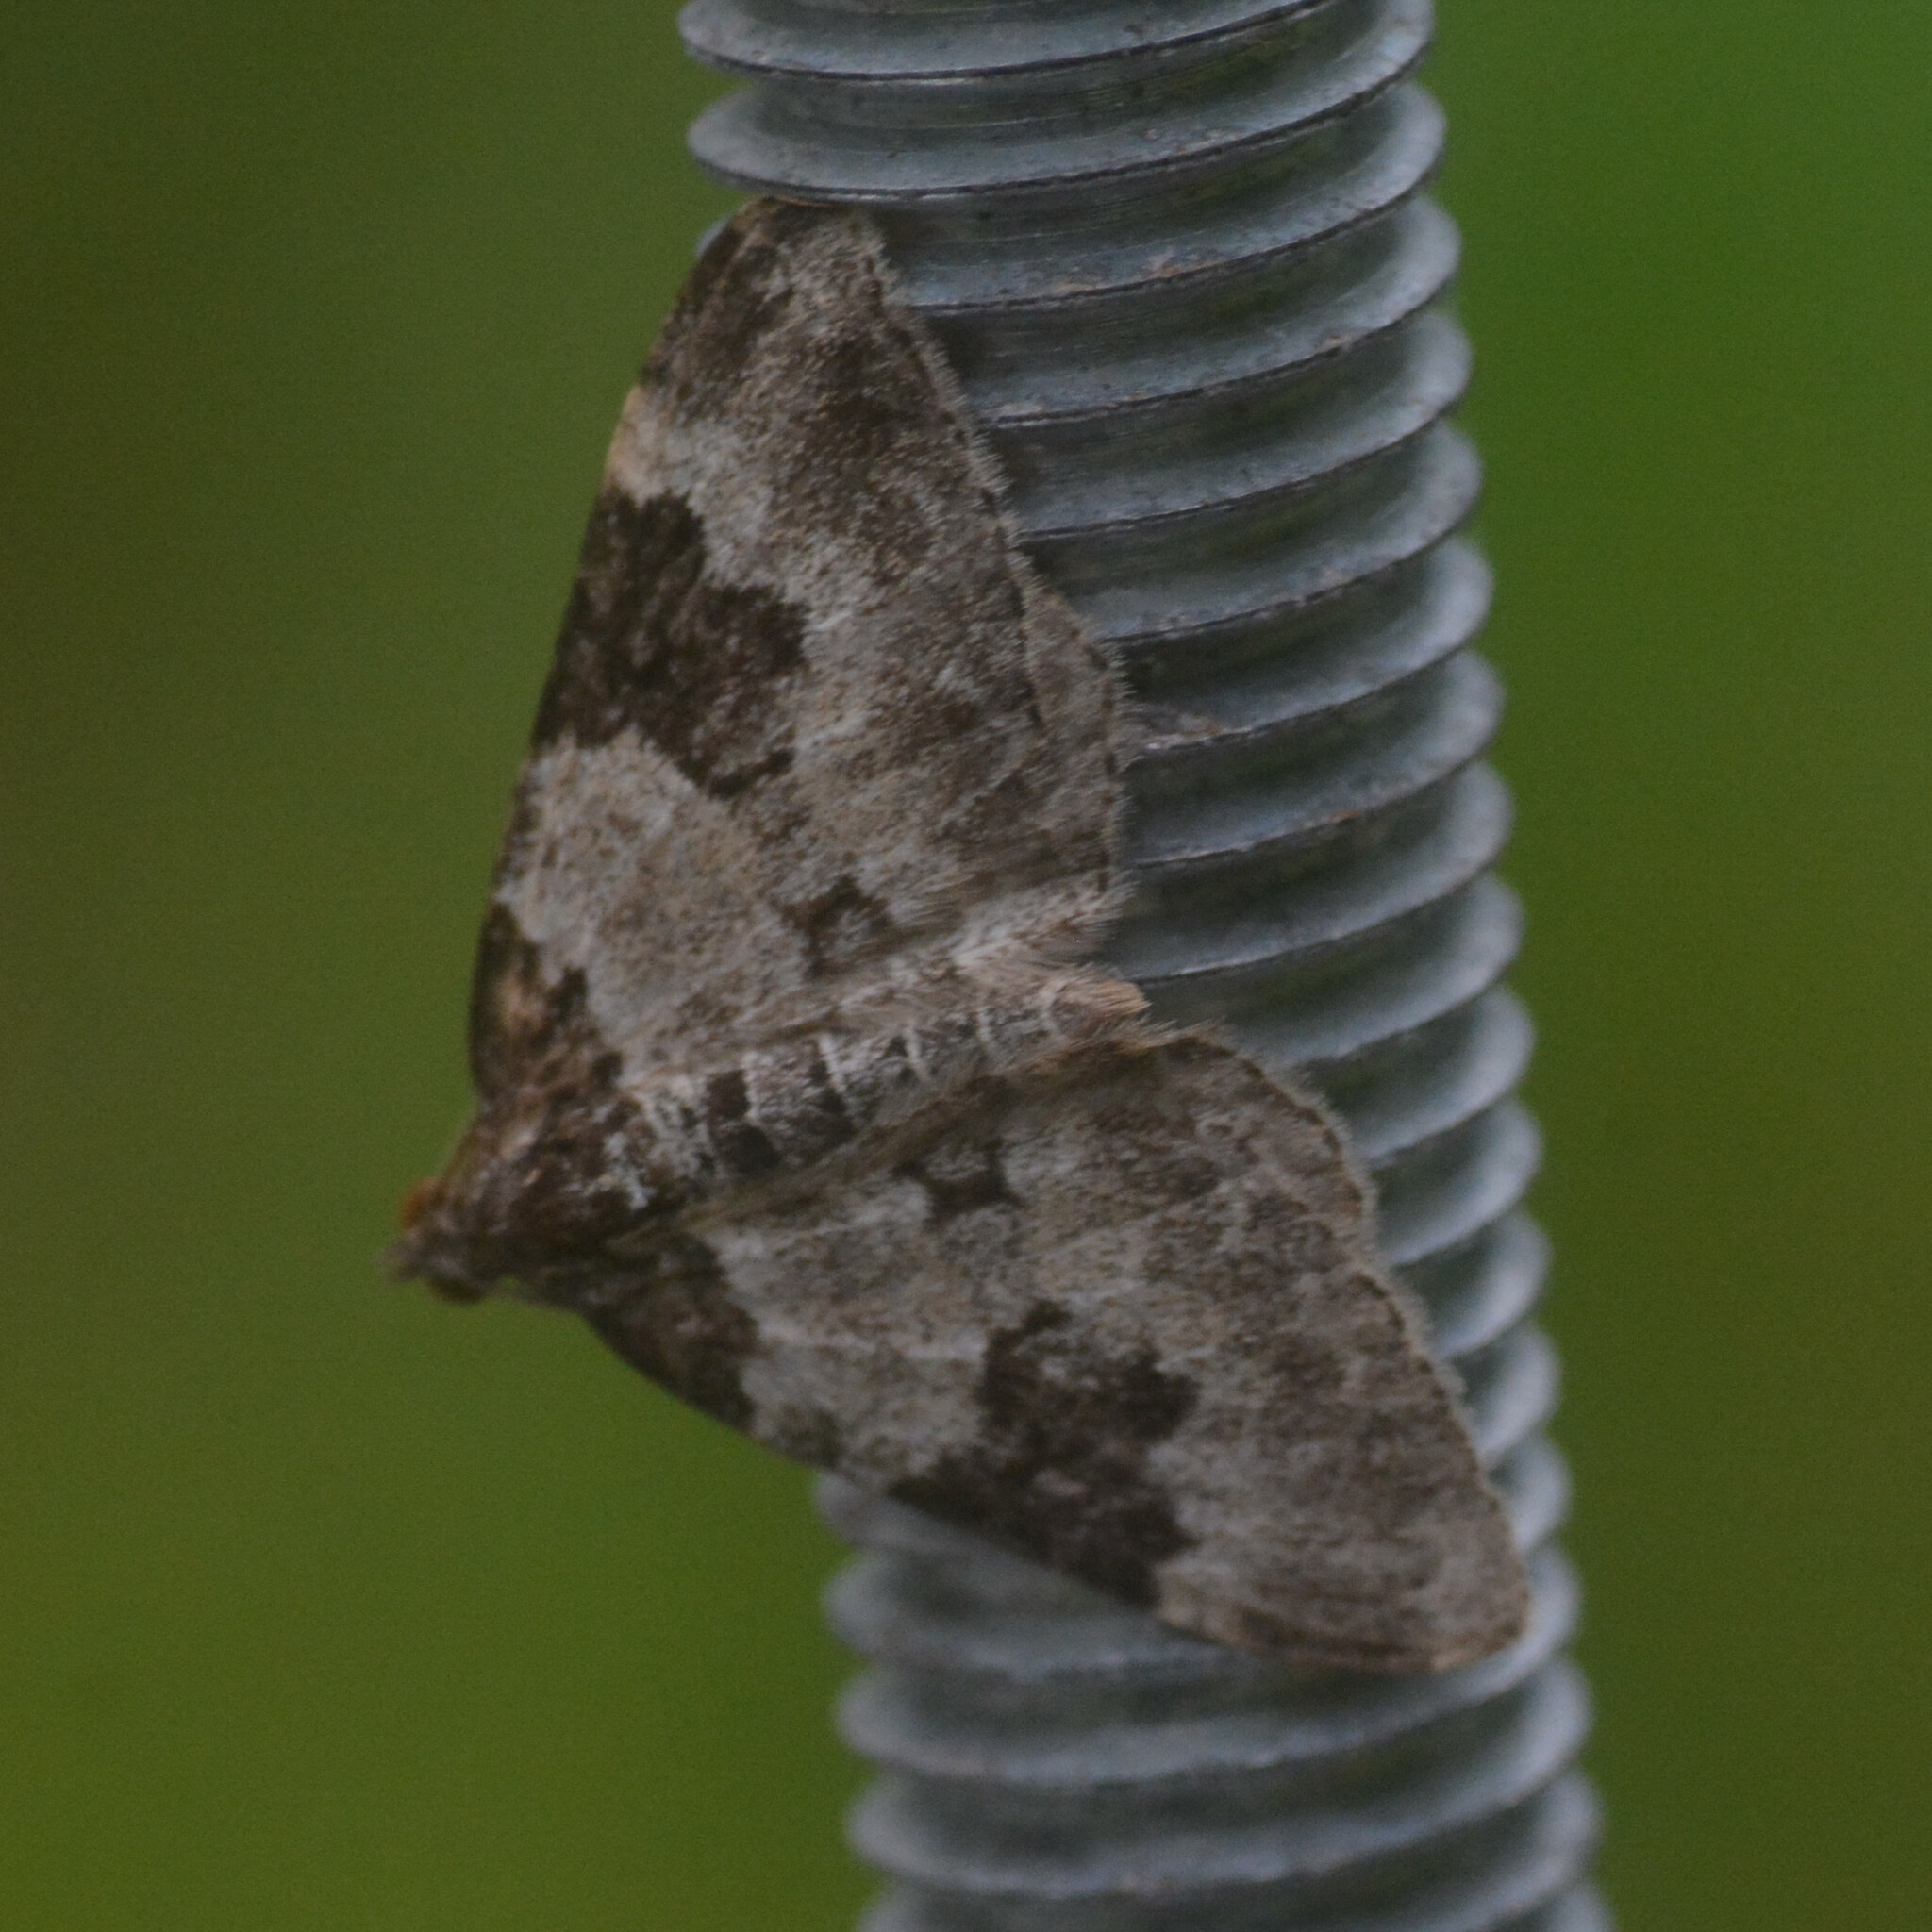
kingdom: Animalia
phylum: Arthropoda
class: Insecta
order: Lepidoptera
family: Geometridae
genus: Xanthorhoe
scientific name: Xanthorhoe fluctuata
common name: Garden carpet
